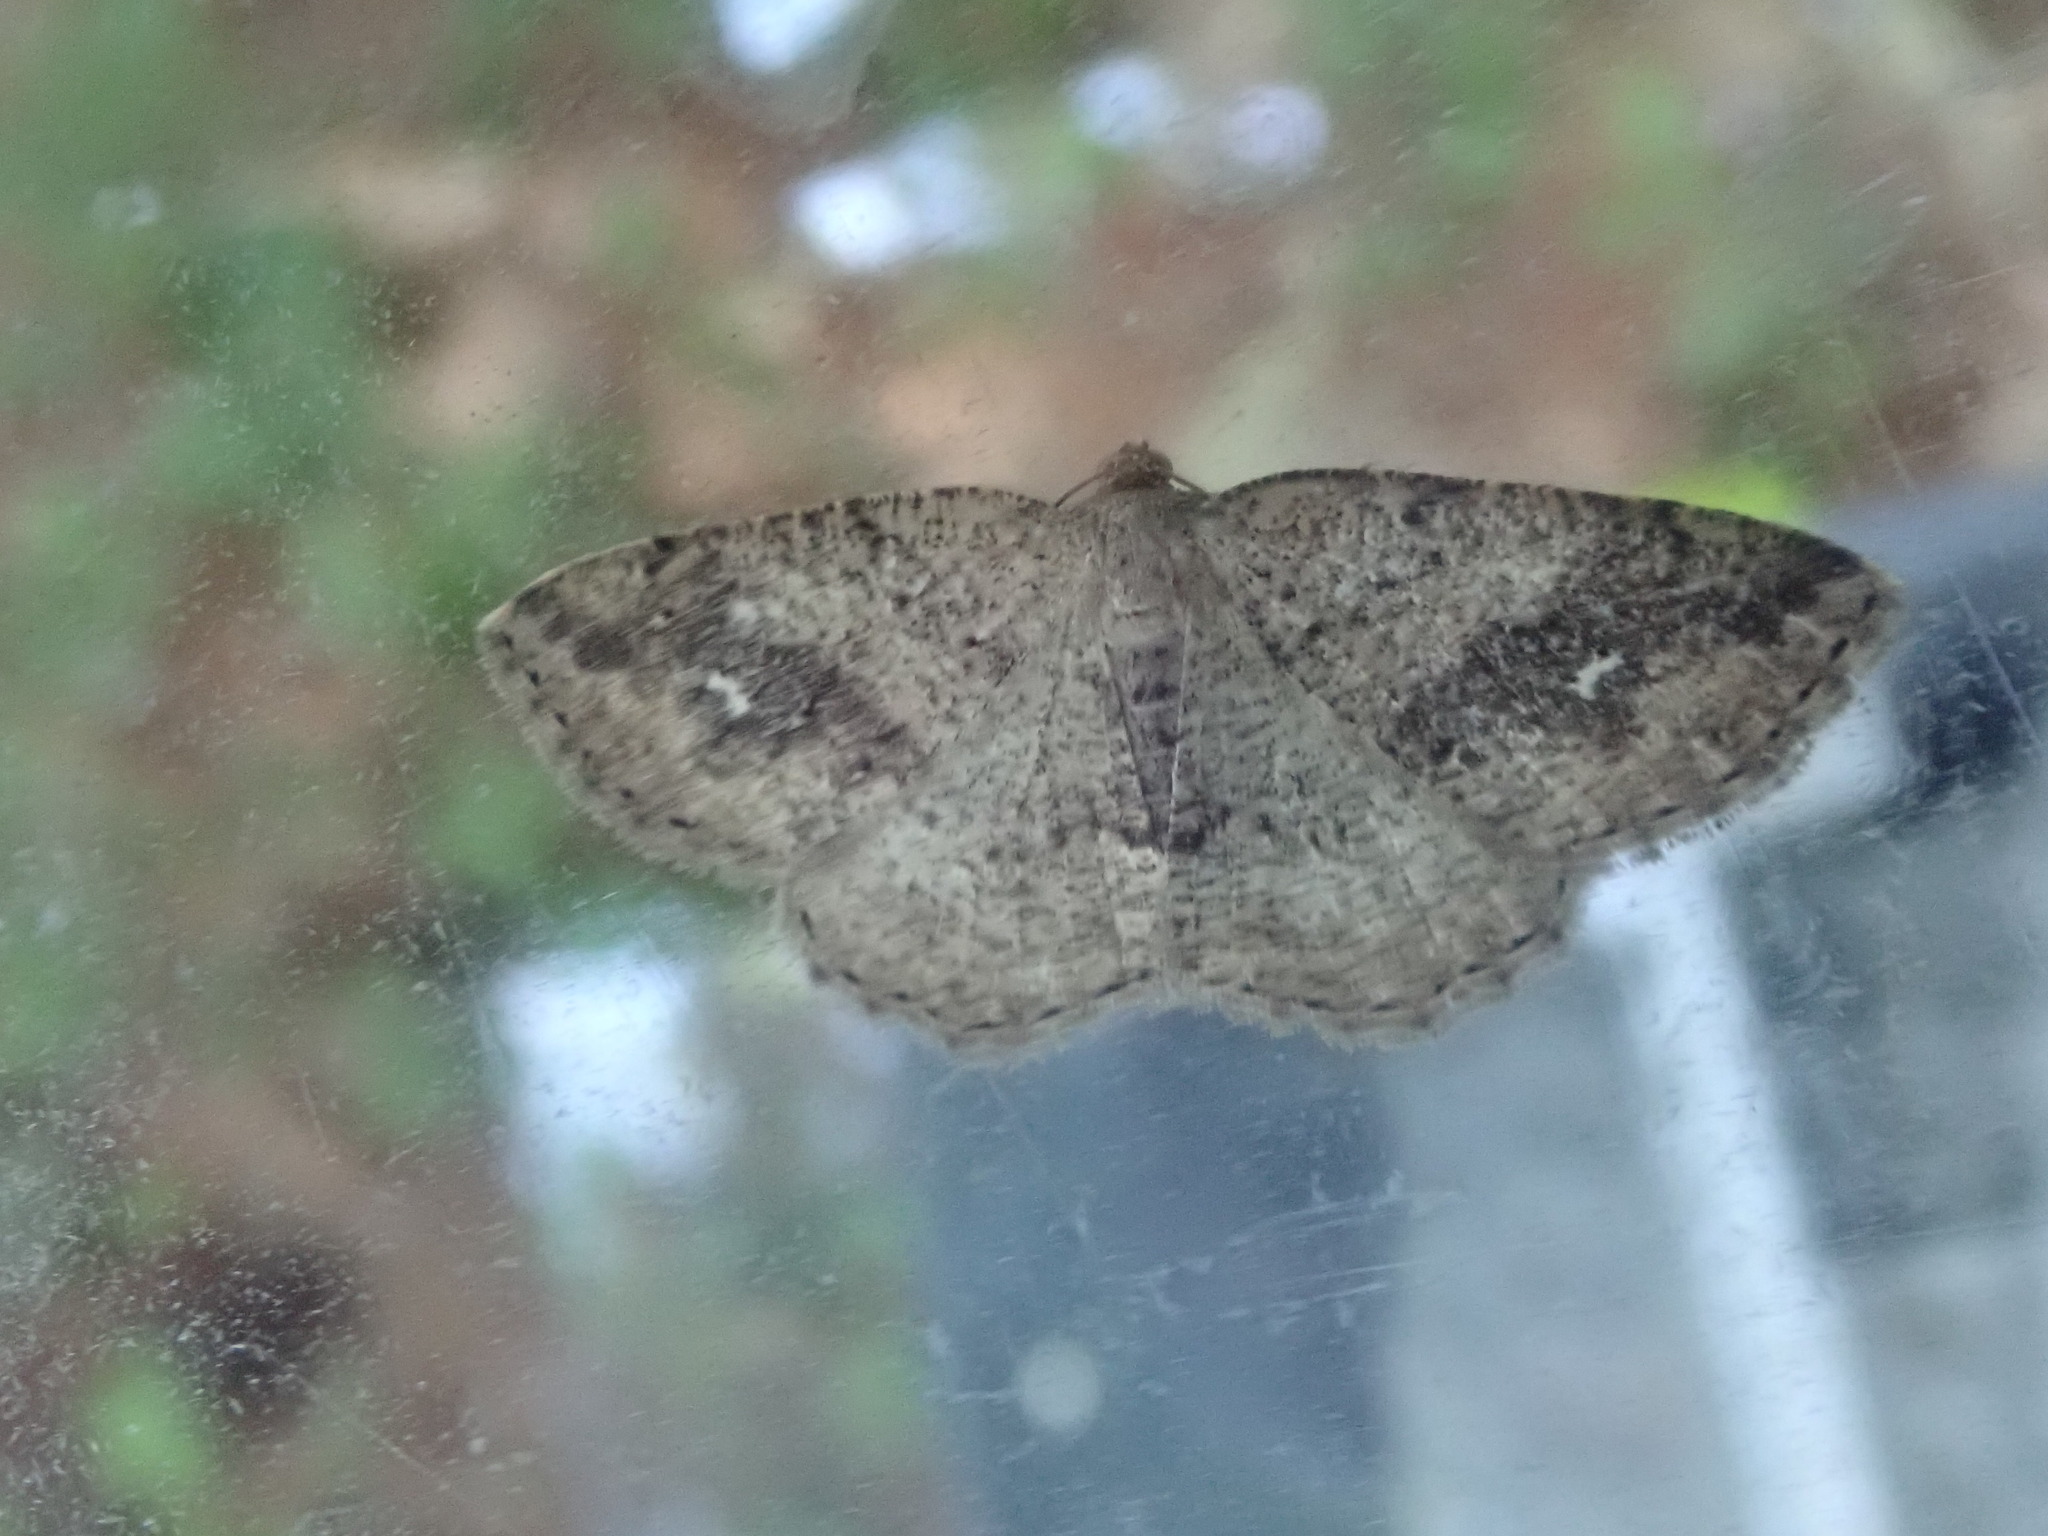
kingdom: Animalia
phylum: Arthropoda
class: Insecta
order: Lepidoptera
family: Geometridae
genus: Homochlodes
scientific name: Homochlodes fritillaria
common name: Pale homochlodes
